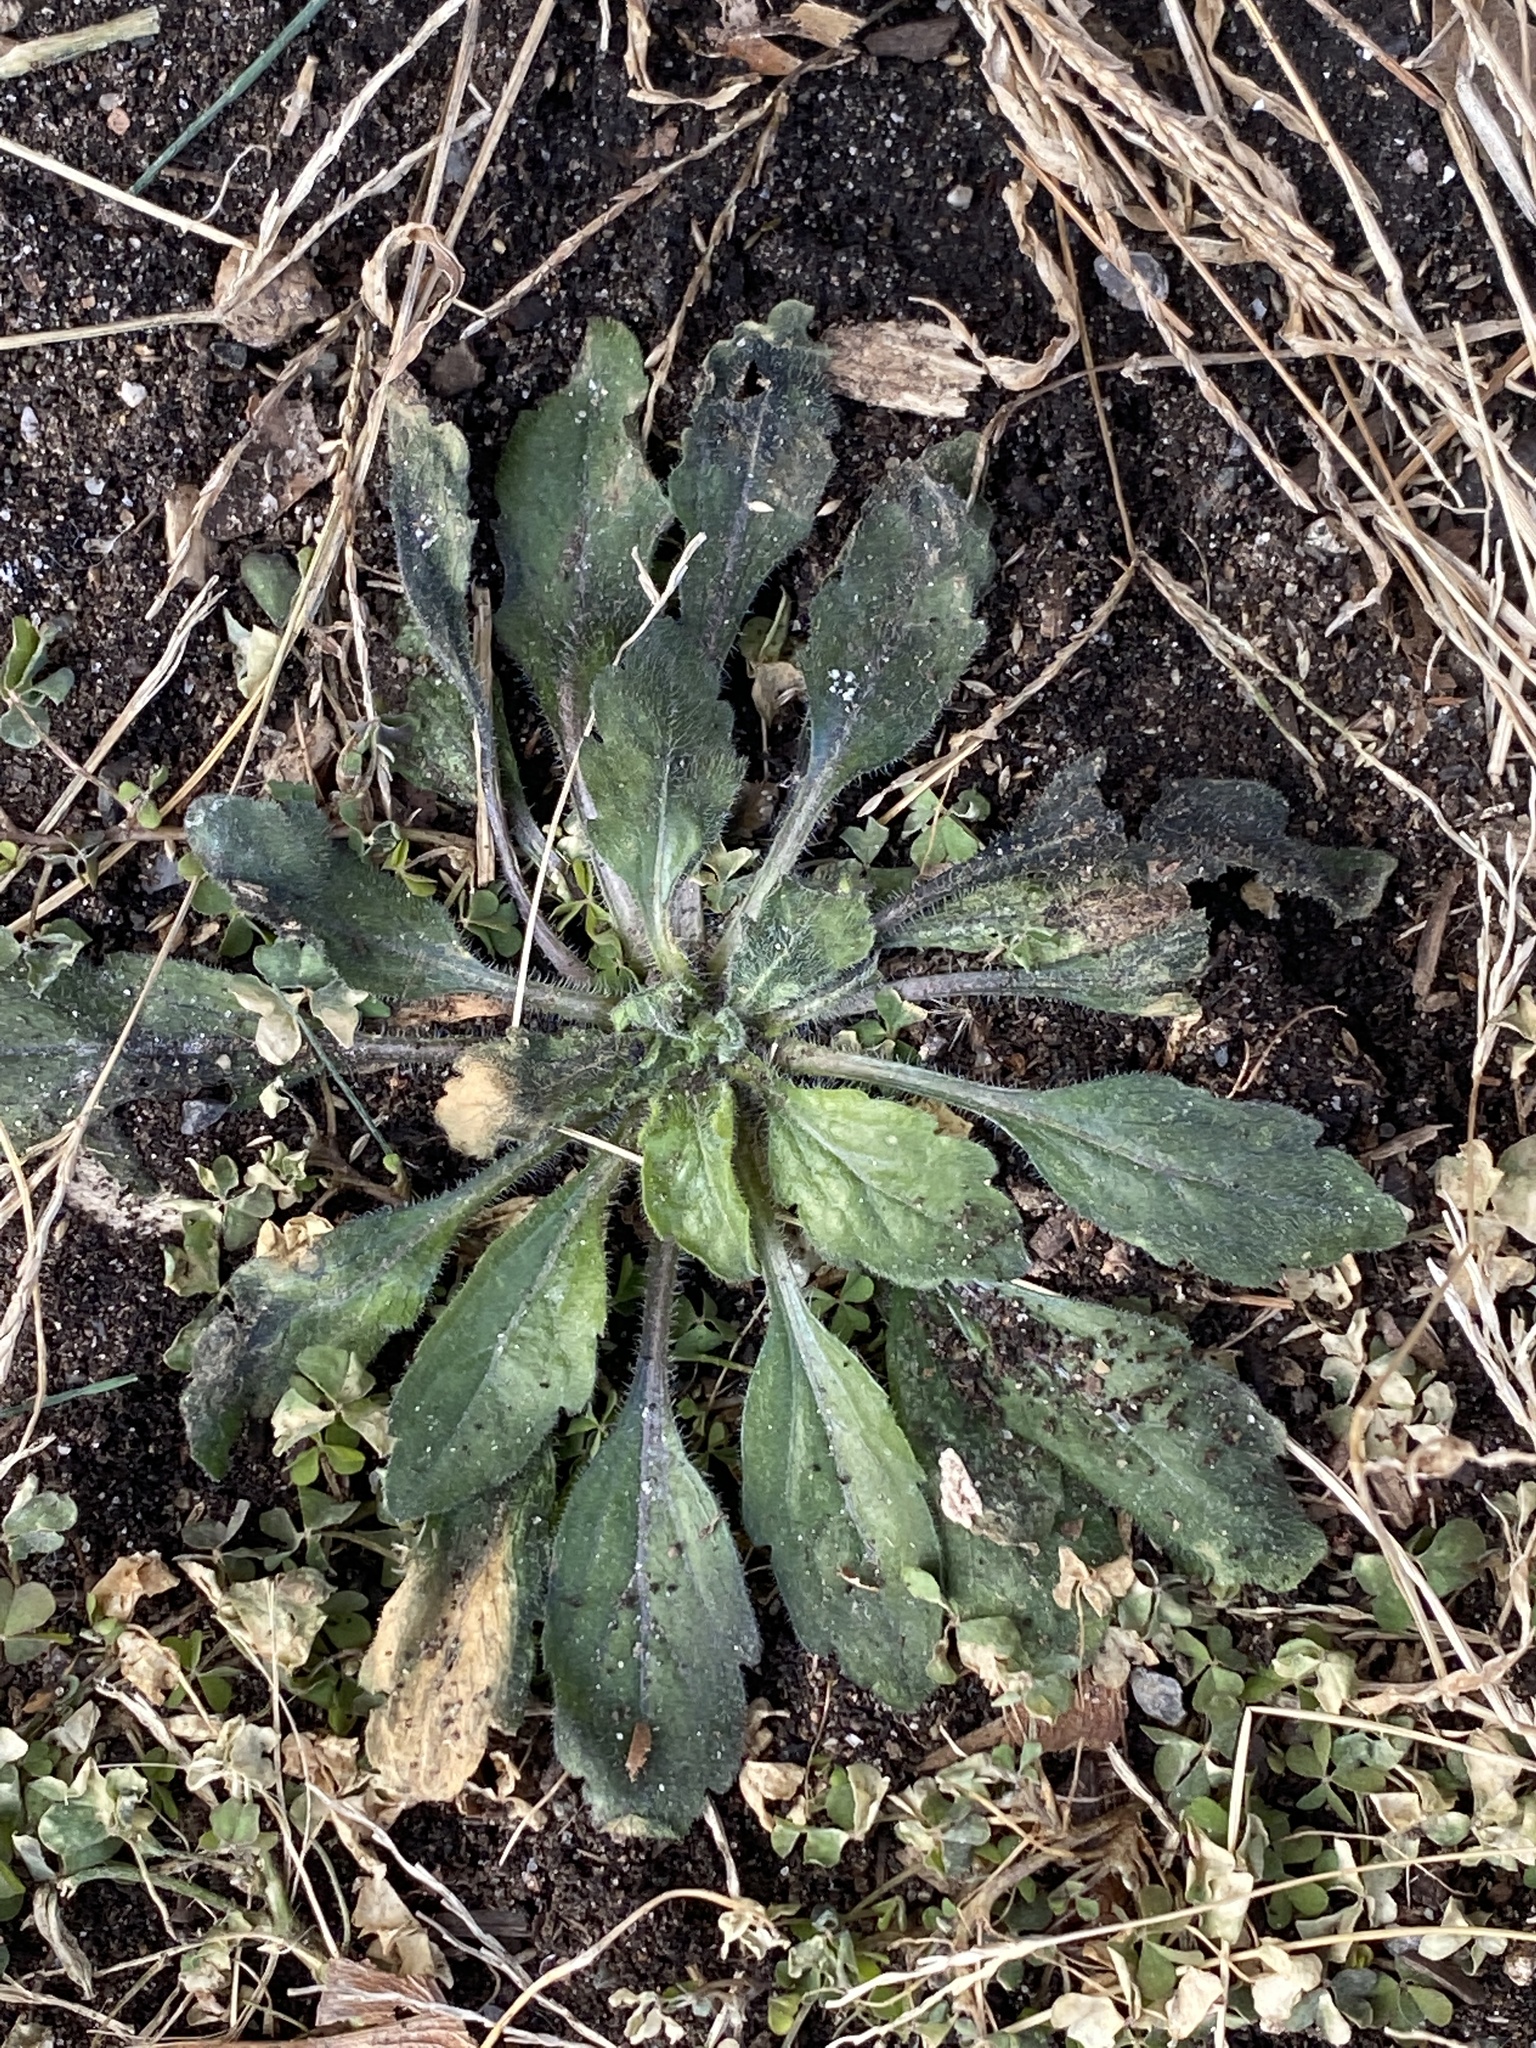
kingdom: Plantae
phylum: Tracheophyta
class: Magnoliopsida
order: Asterales
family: Asteraceae
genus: Erigeron
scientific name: Erigeron canadensis
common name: Canadian fleabane
